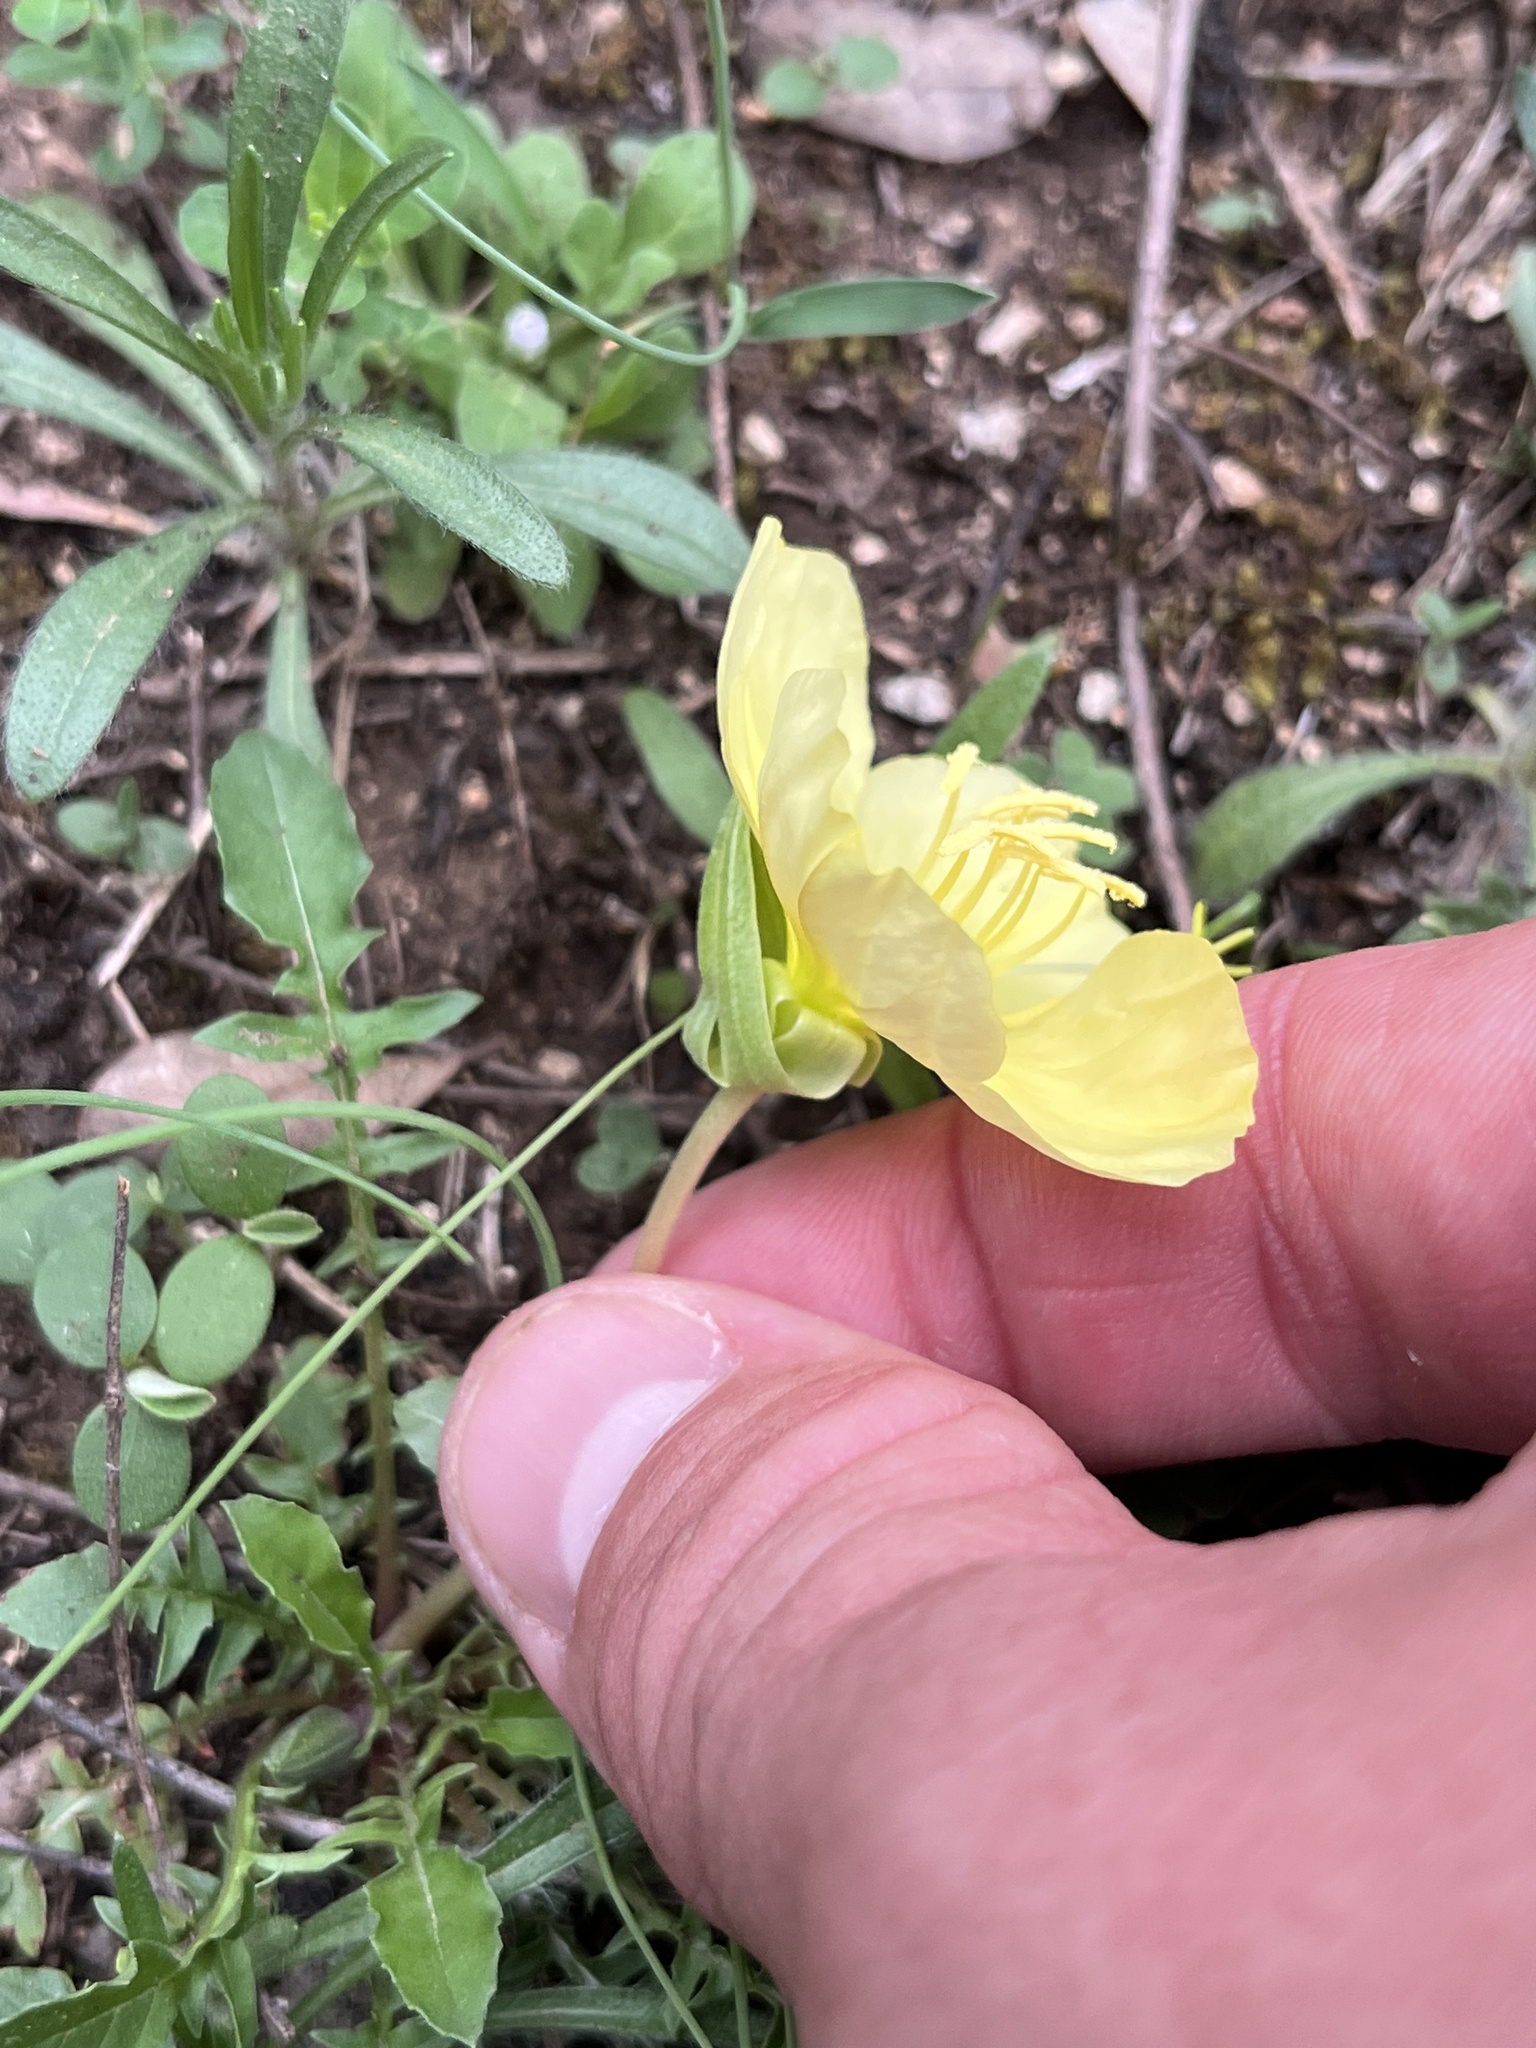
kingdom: Plantae
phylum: Tracheophyta
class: Magnoliopsida
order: Myrtales
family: Onagraceae
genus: Oenothera
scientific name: Oenothera triloba
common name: Sessile evening-primrose
